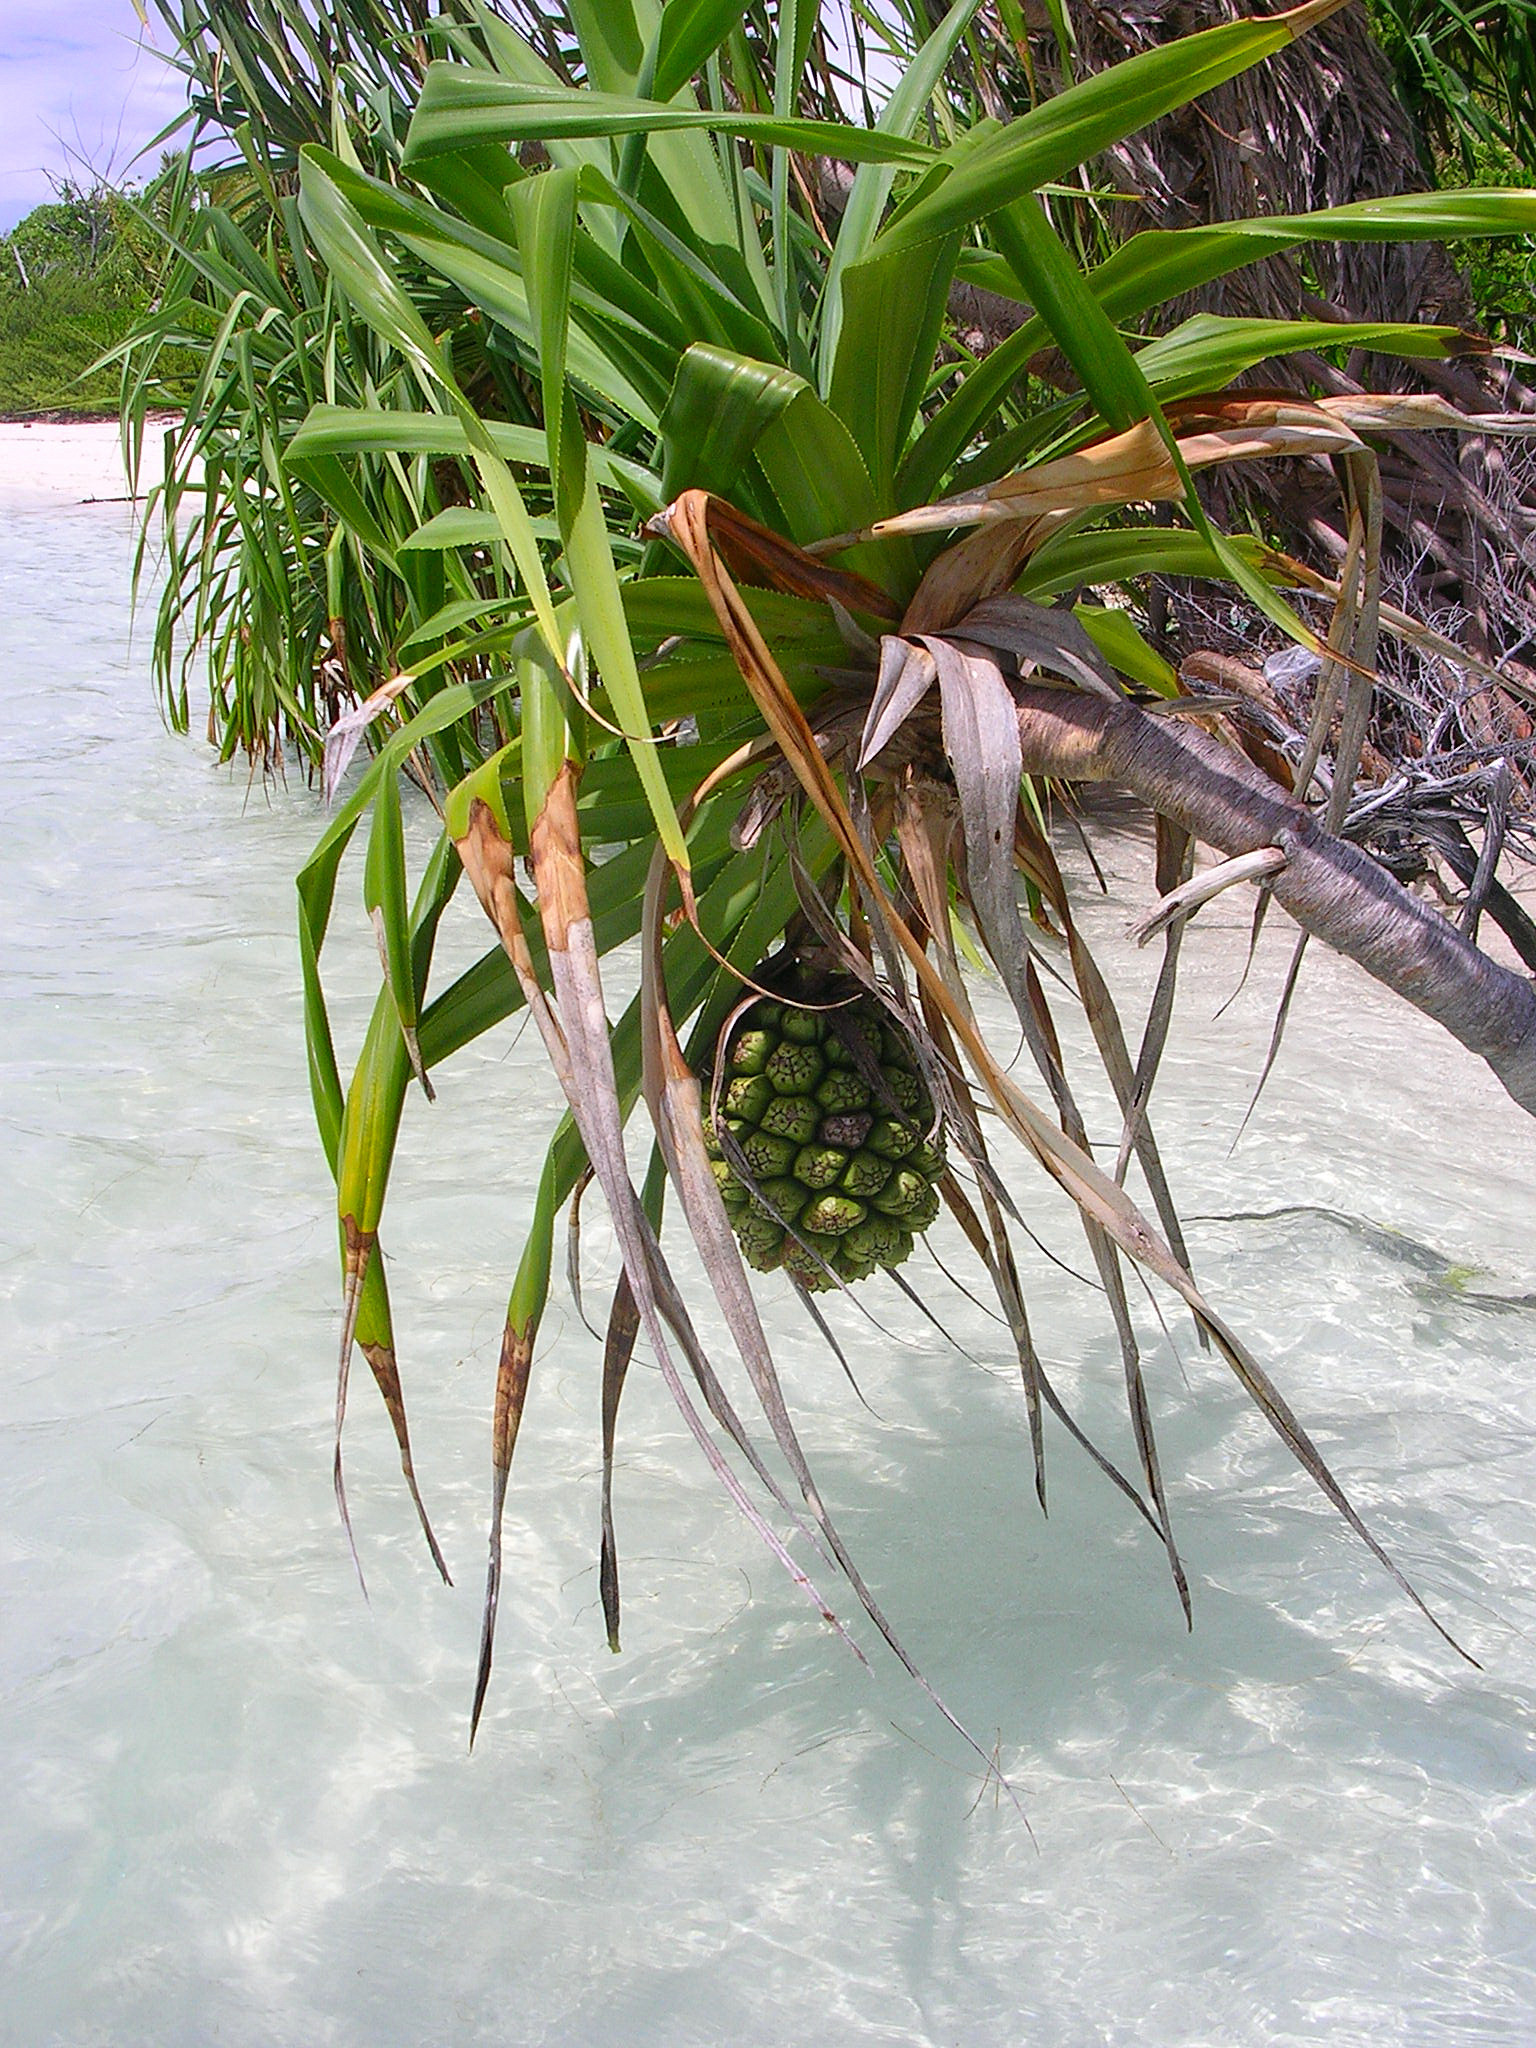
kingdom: Plantae
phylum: Tracheophyta
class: Liliopsida
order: Pandanales
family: Pandanaceae
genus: Pandanus
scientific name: Pandanus tectorius
